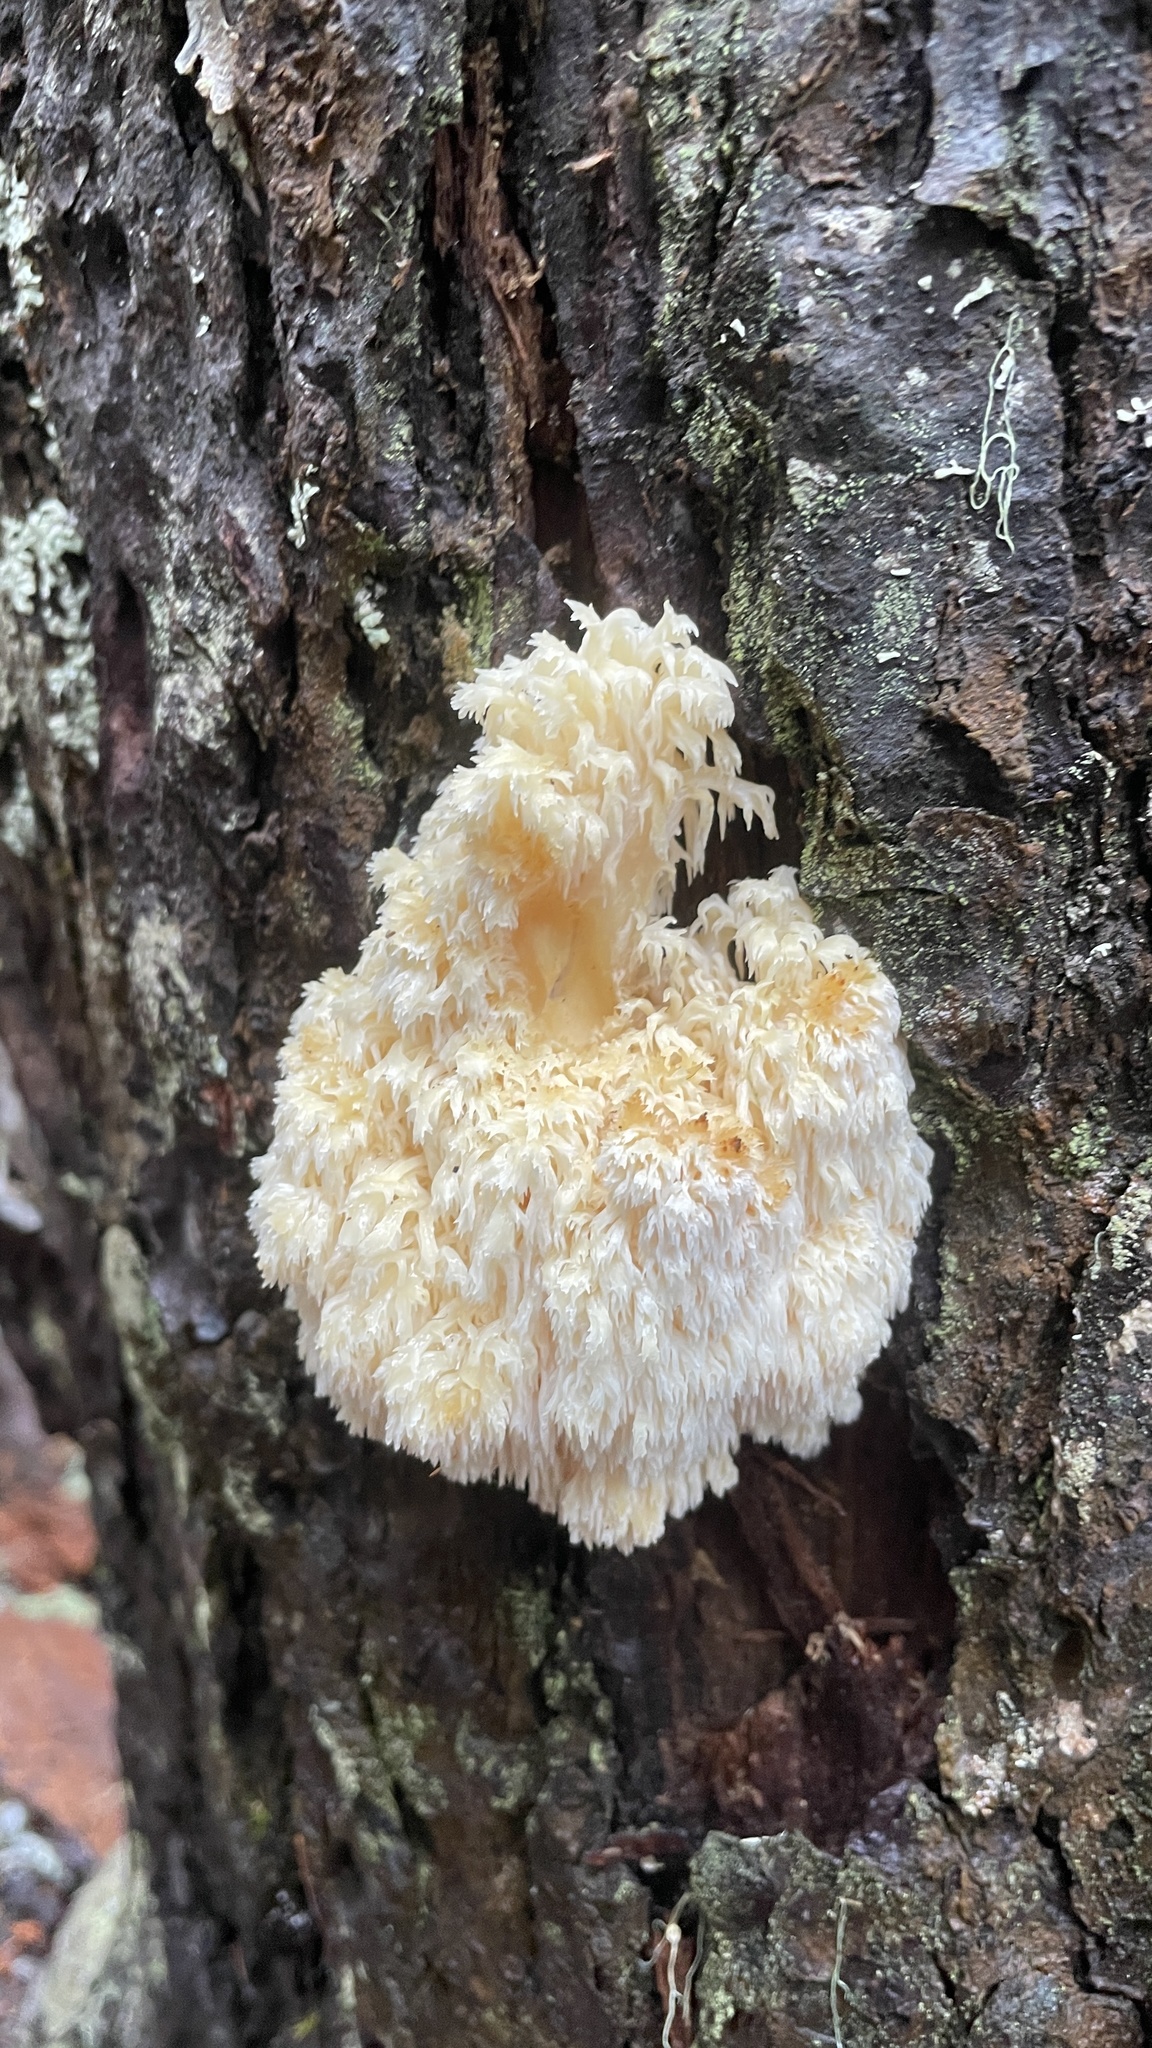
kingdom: Fungi
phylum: Basidiomycota
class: Agaricomycetes
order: Russulales
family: Hericiaceae
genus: Hericium
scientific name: Hericium abietis
